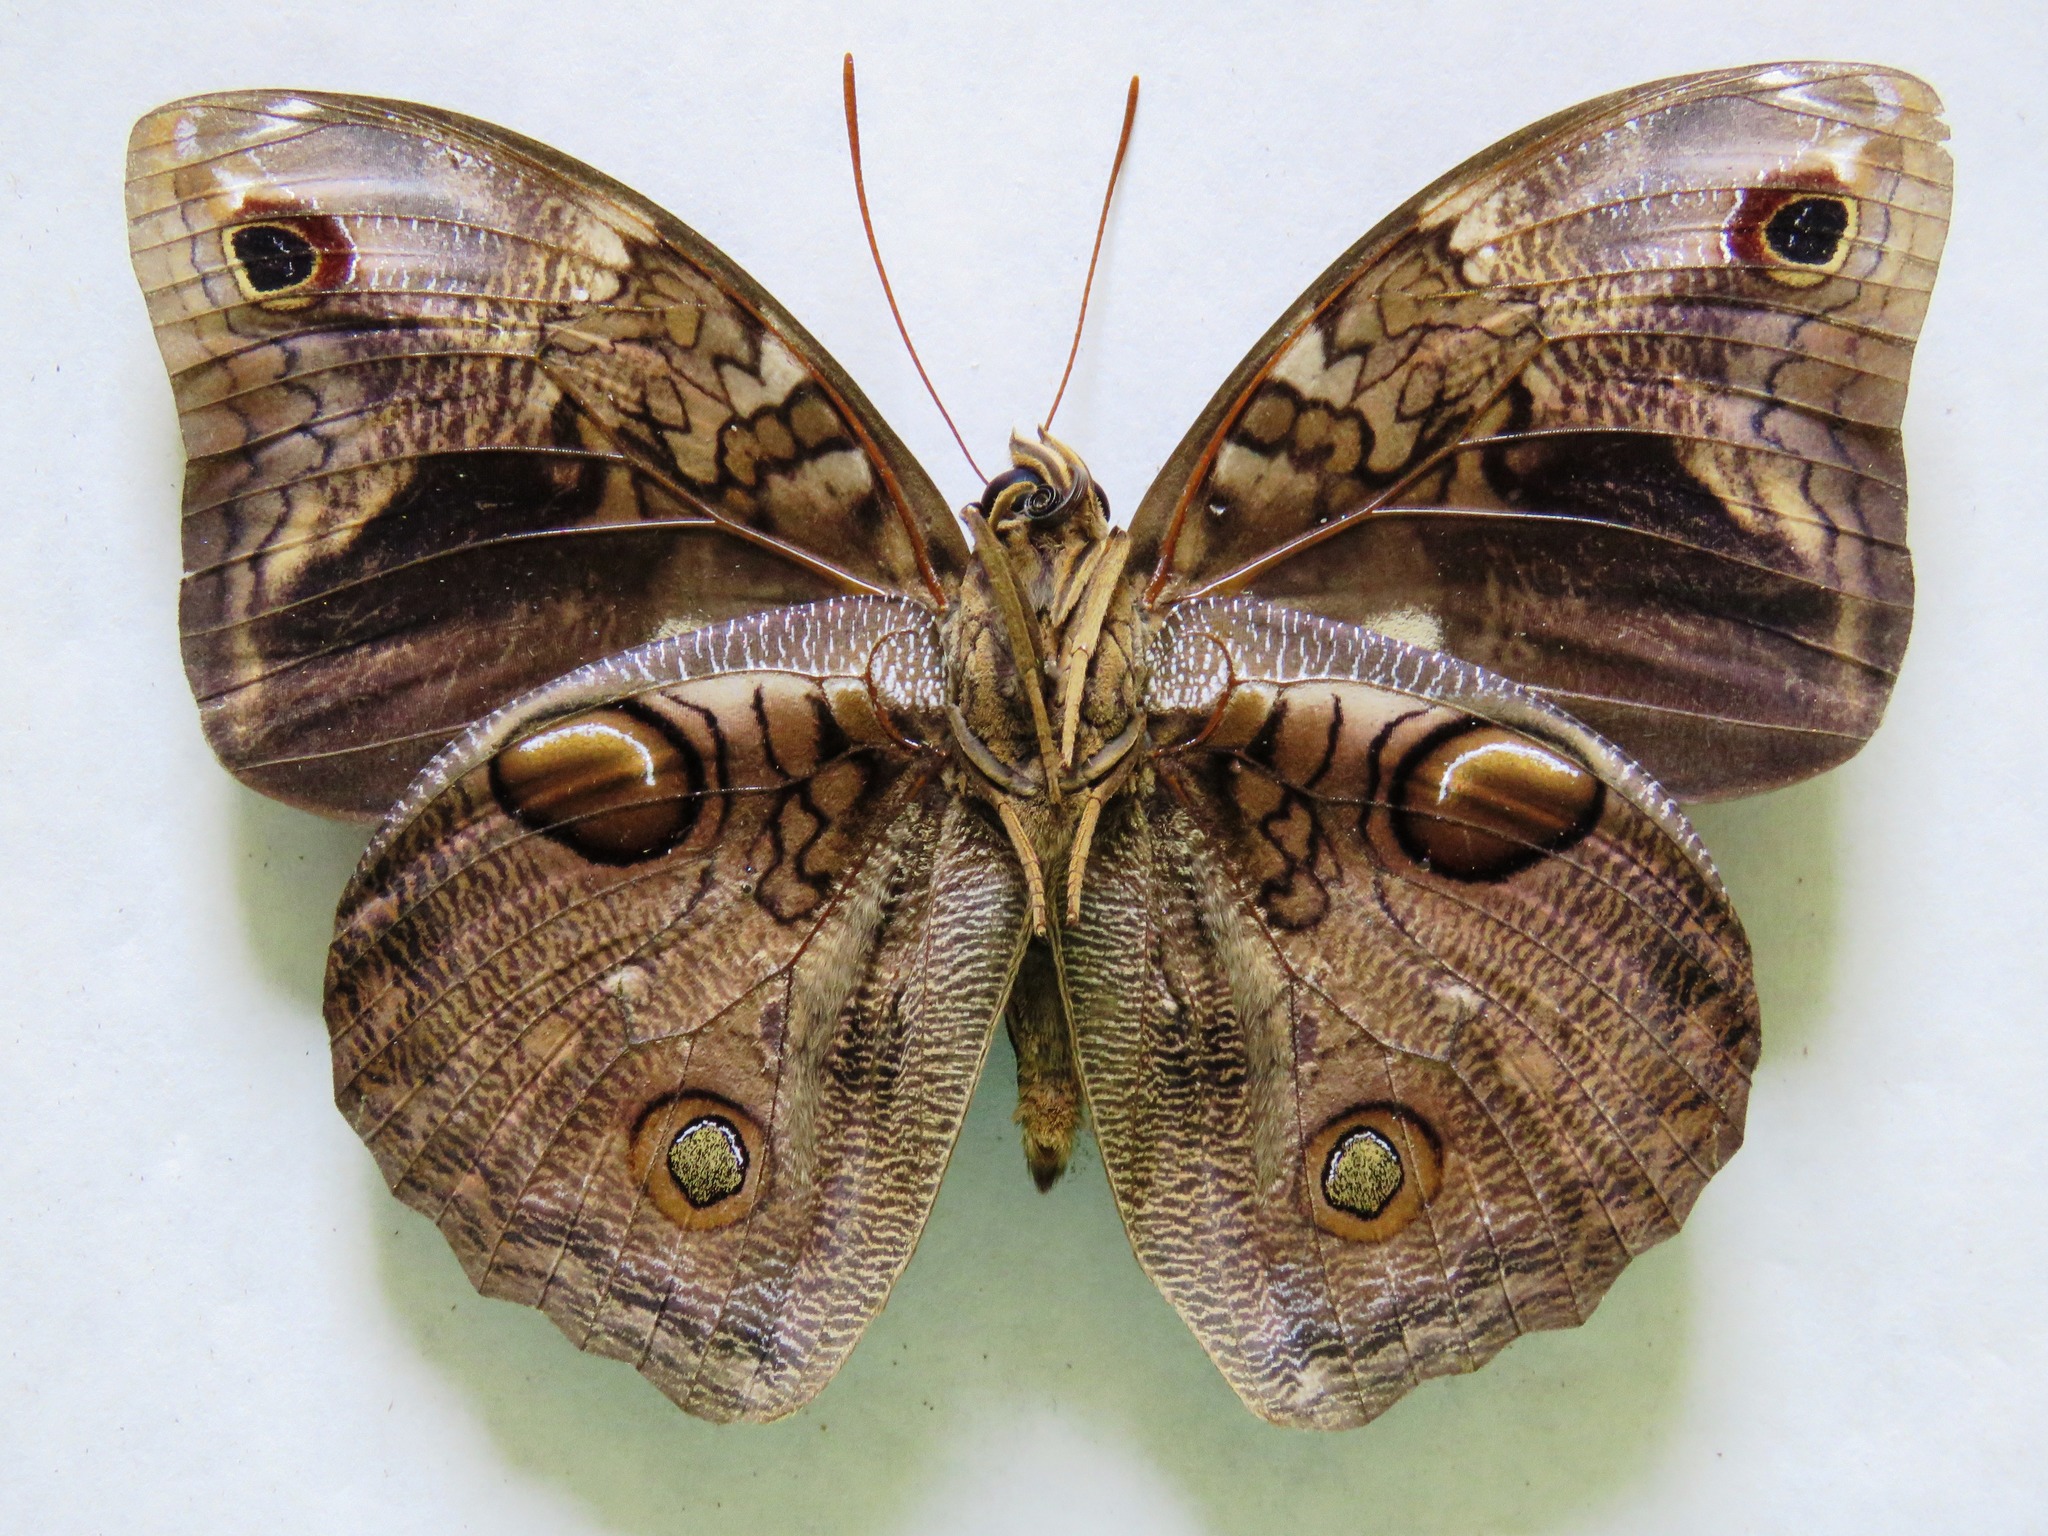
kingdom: Animalia
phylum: Arthropoda
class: Insecta
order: Lepidoptera
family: Nymphalidae
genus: Opsiphanes
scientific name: Opsiphanes cassiae
